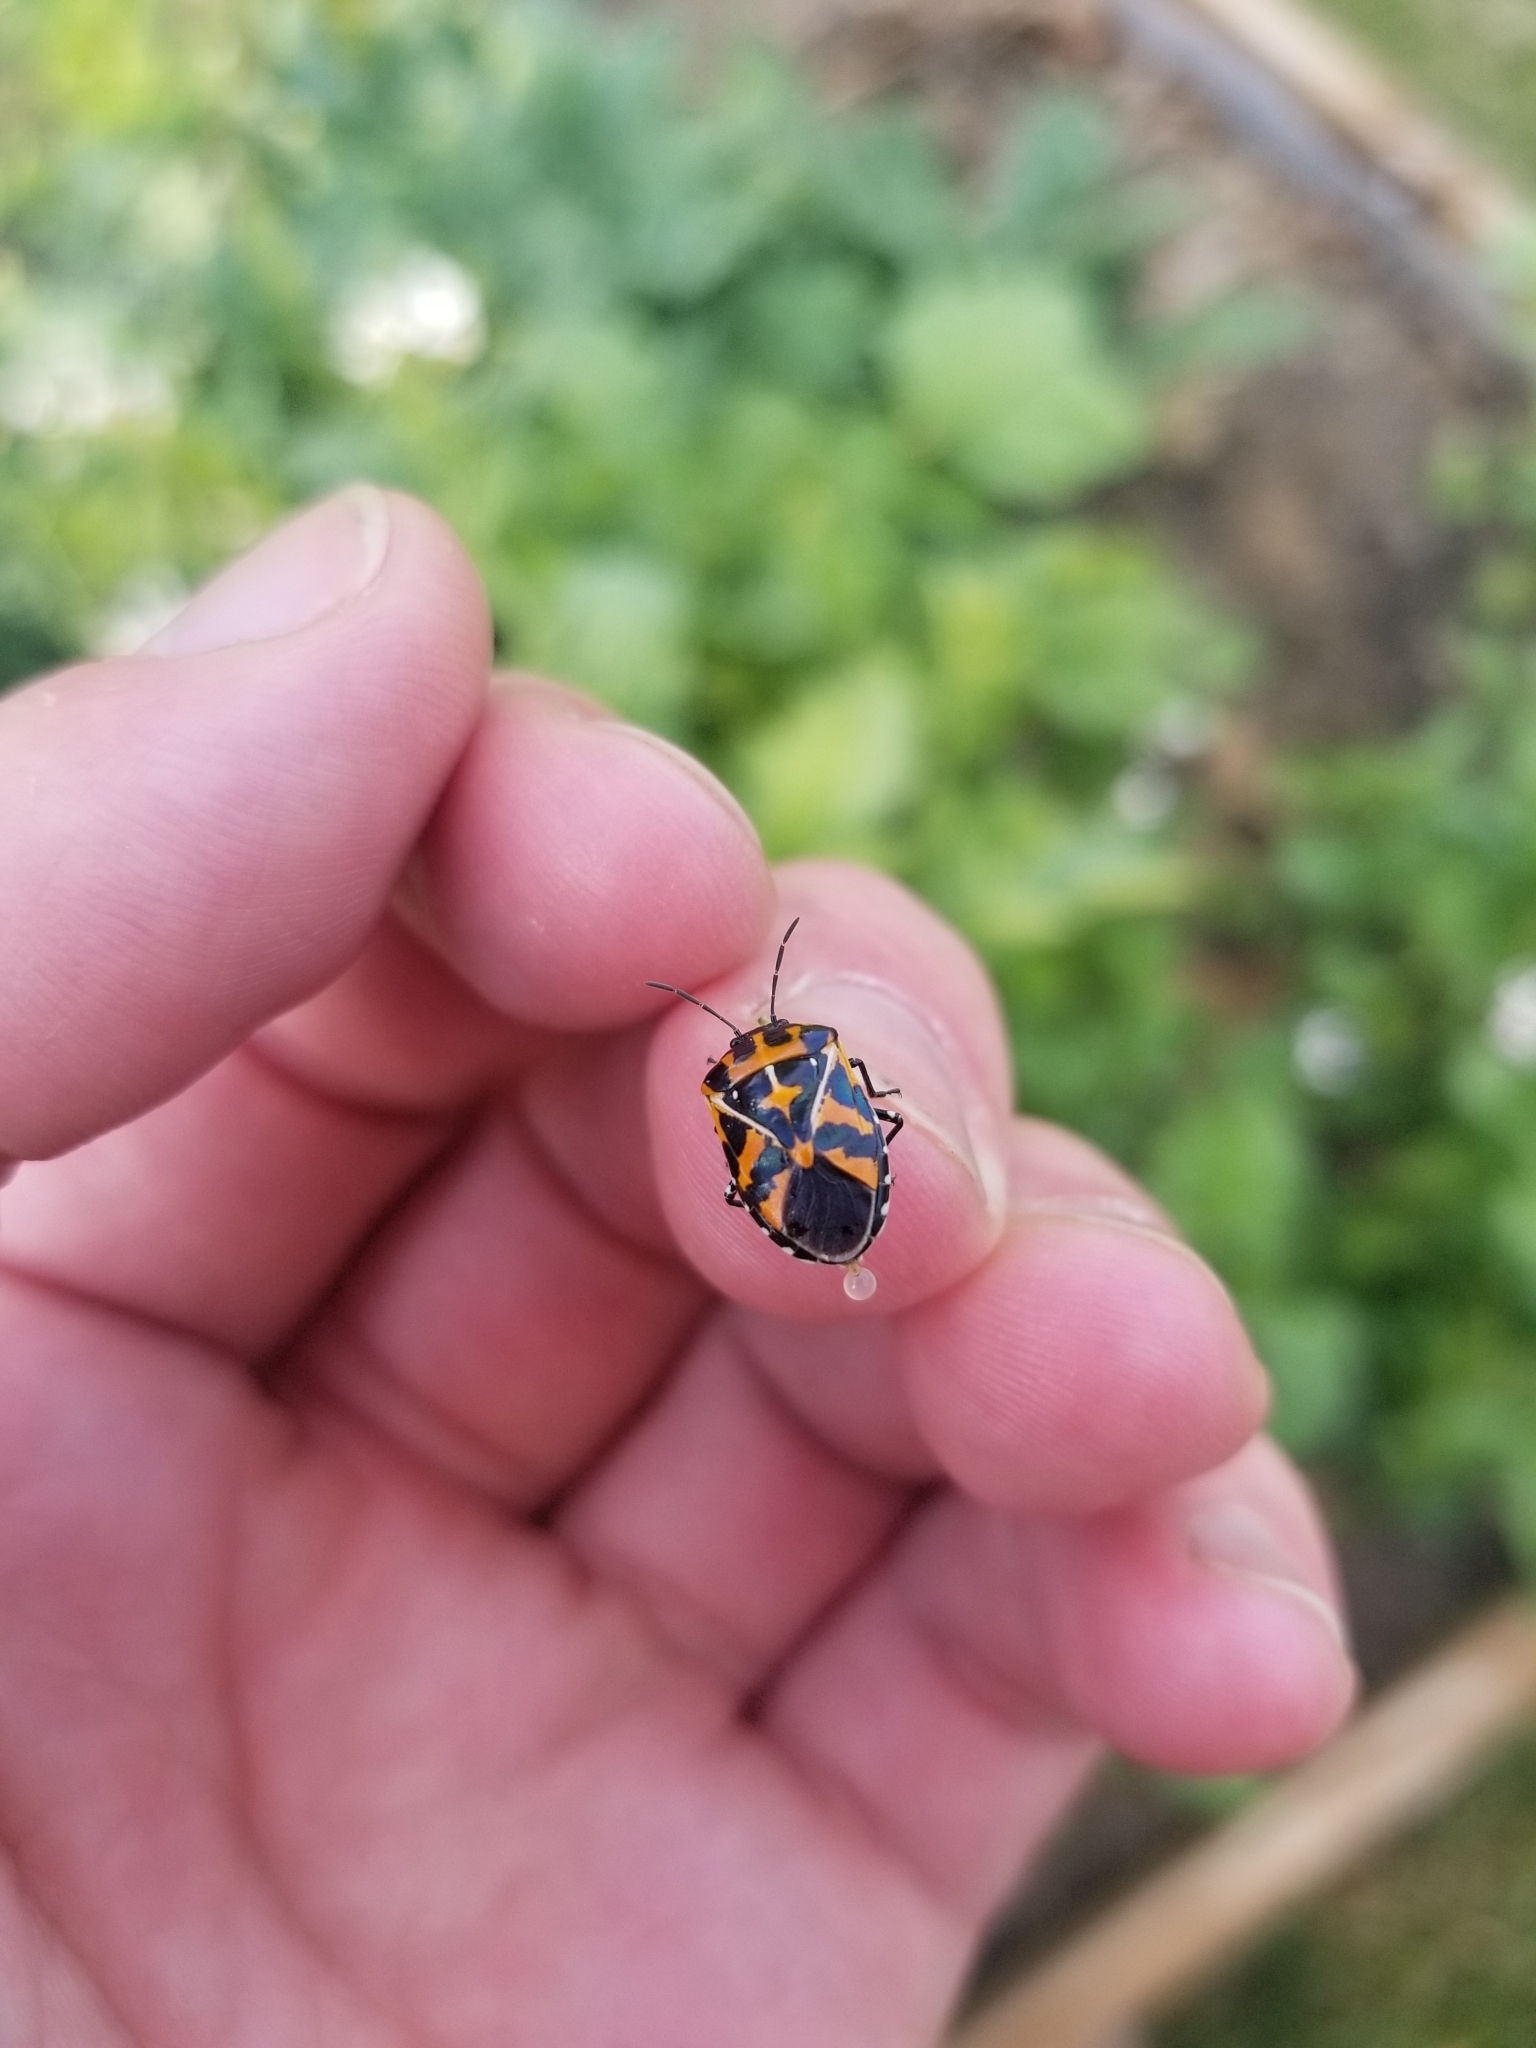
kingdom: Animalia
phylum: Arthropoda
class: Insecta
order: Hemiptera
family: Pentatomidae
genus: Murgantia
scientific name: Murgantia histrionica
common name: Harlequin bug
